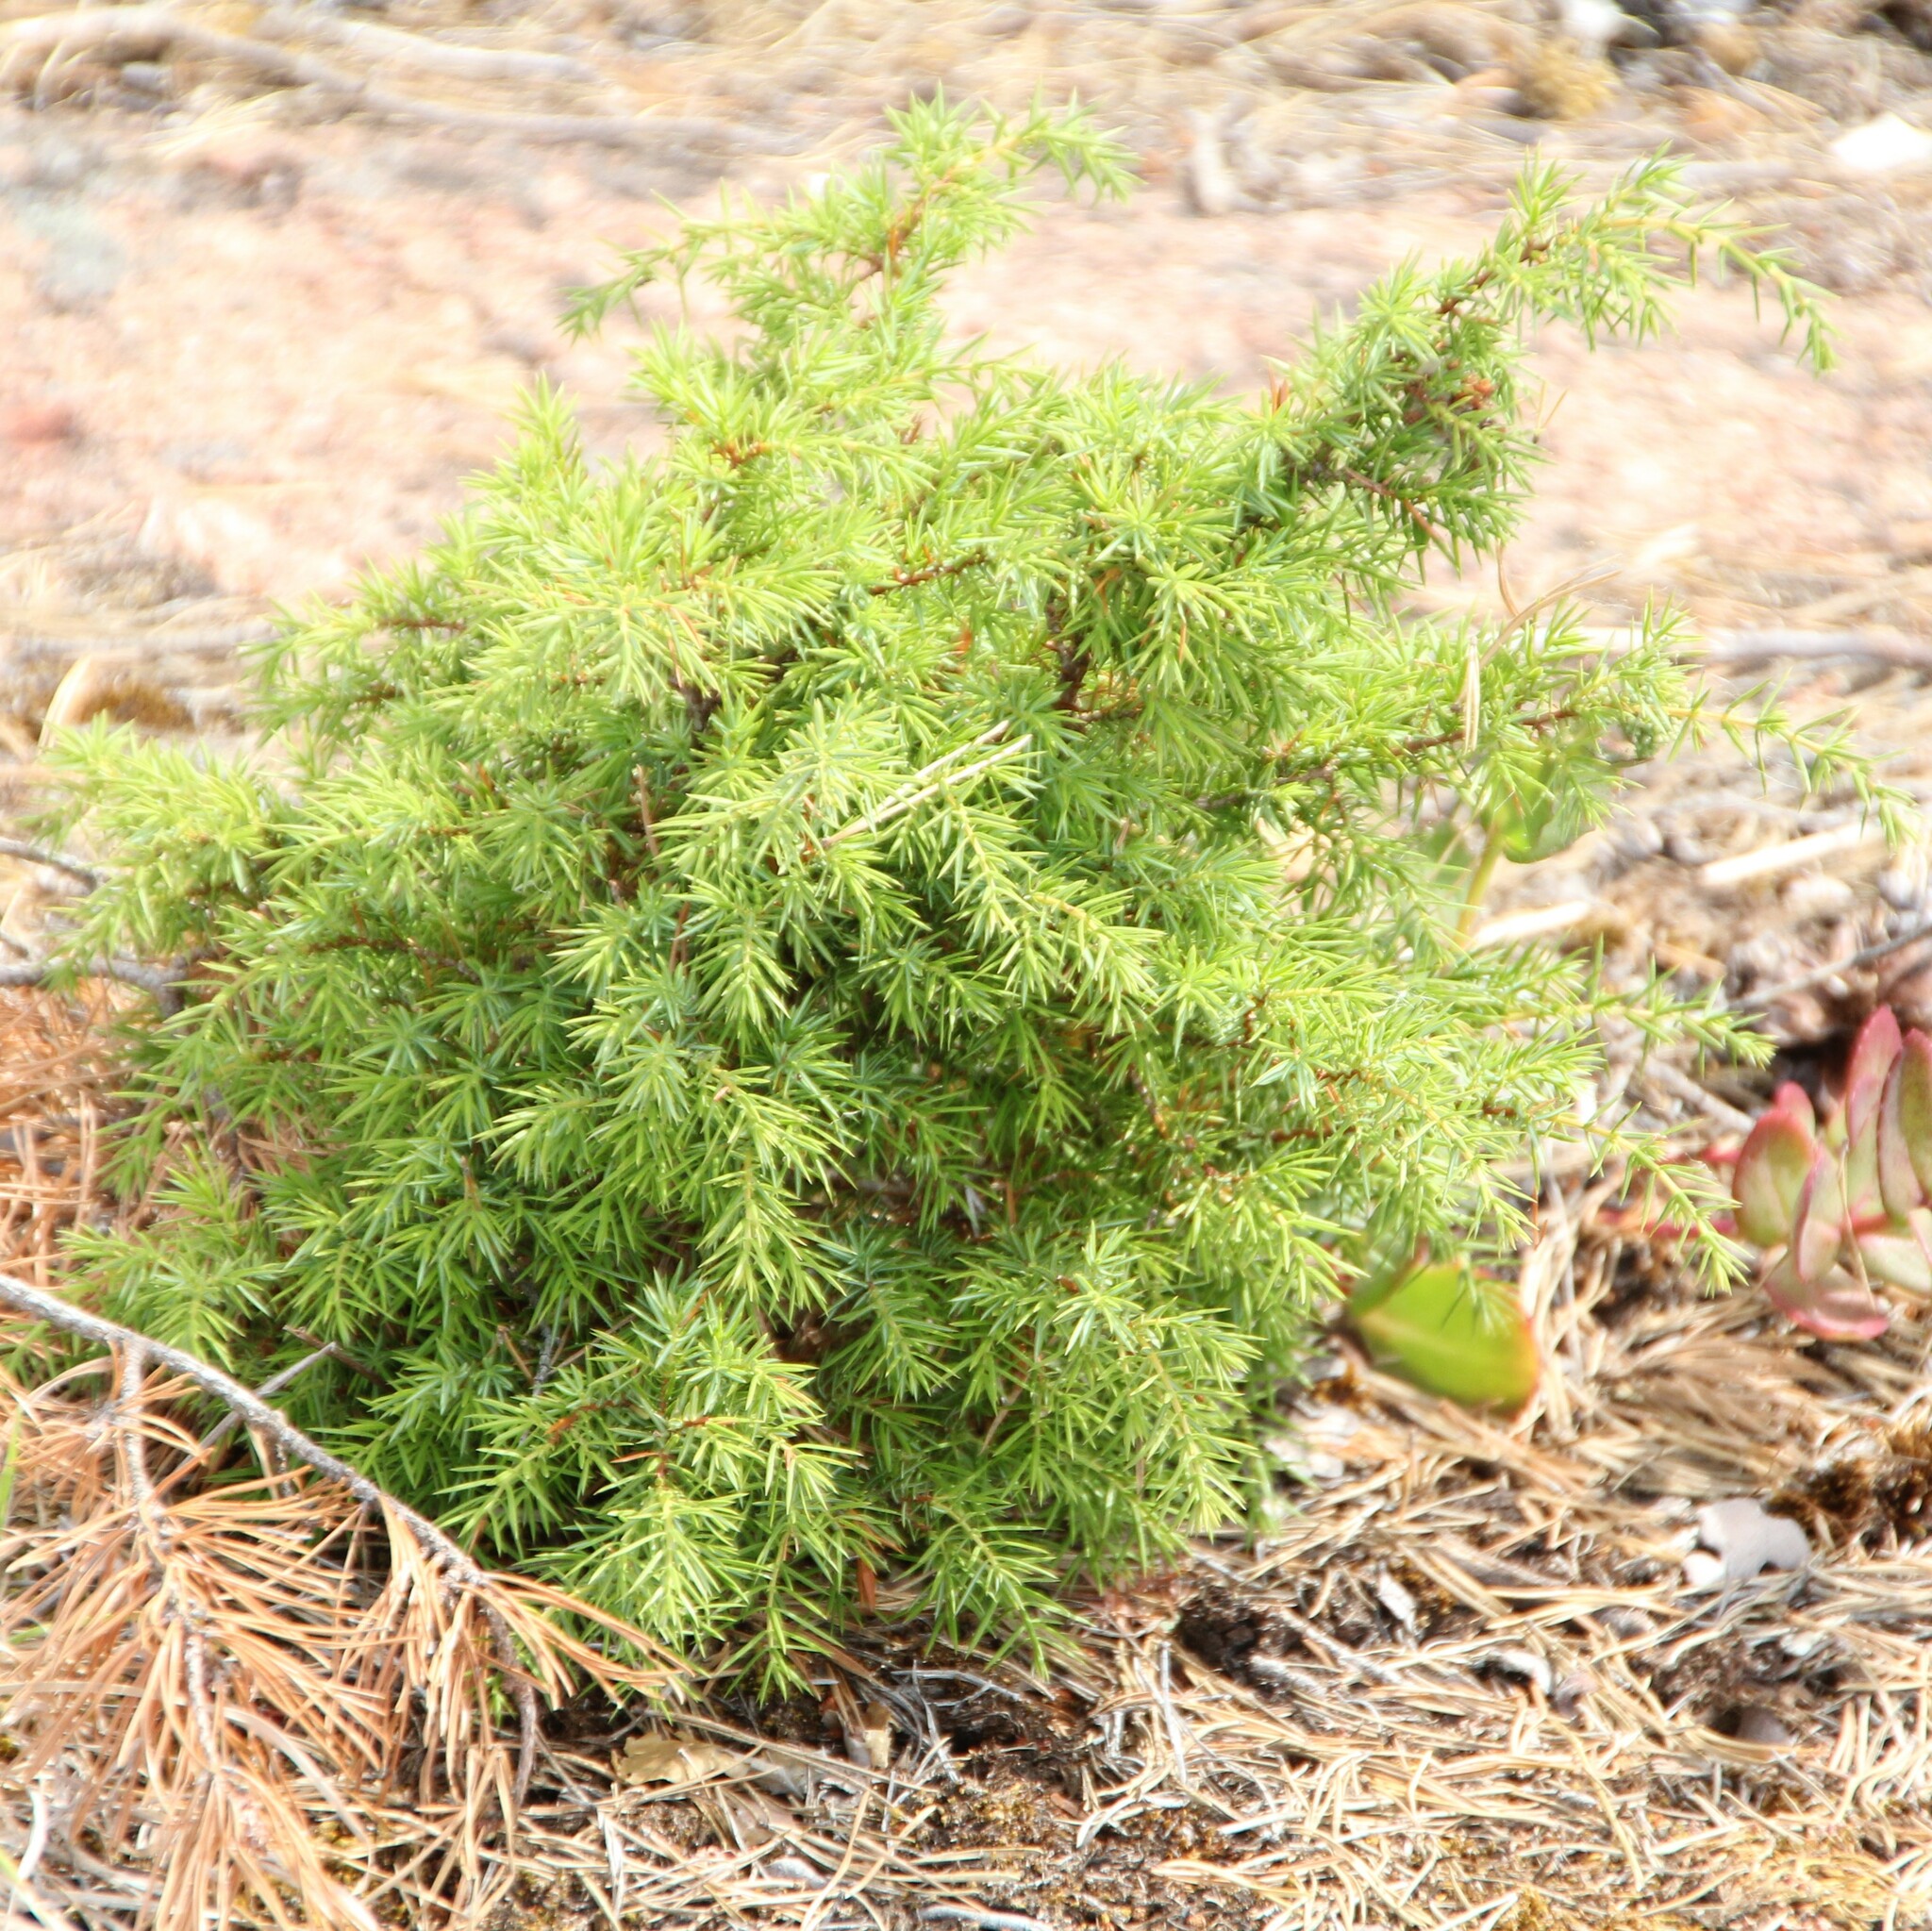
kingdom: Plantae
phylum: Tracheophyta
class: Pinopsida
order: Pinales
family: Cupressaceae
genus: Juniperus
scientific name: Juniperus communis
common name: Common juniper
